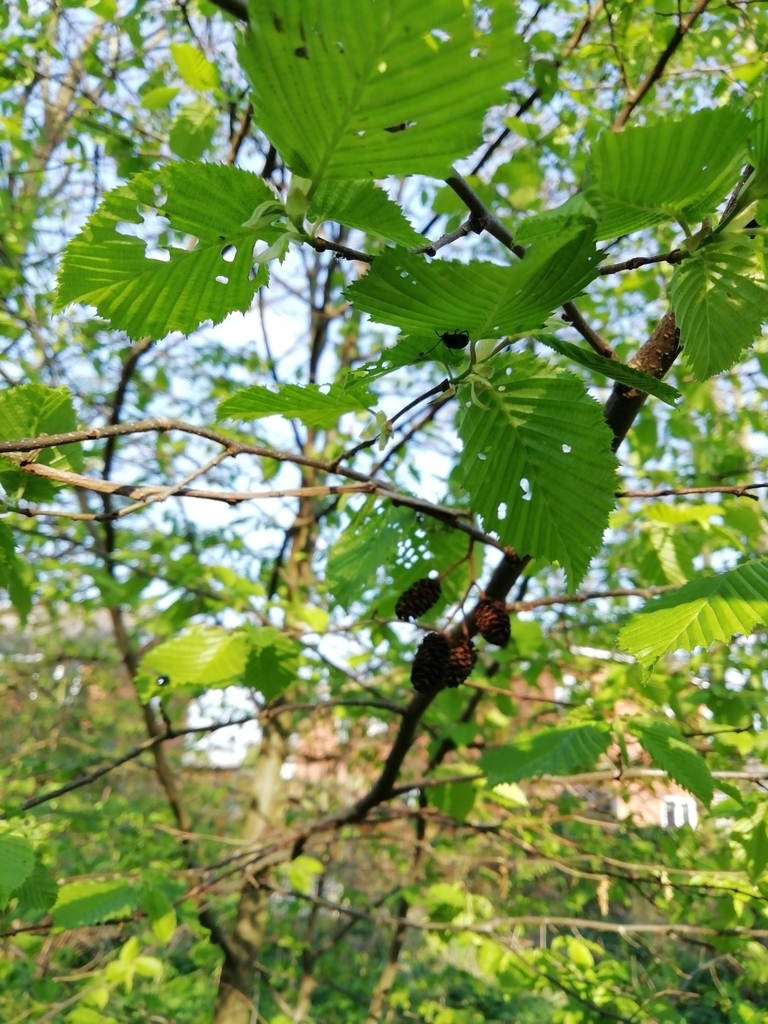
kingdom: Plantae
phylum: Tracheophyta
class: Magnoliopsida
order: Fagales
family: Betulaceae
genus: Alnus
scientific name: Alnus glutinosa
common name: Black alder
